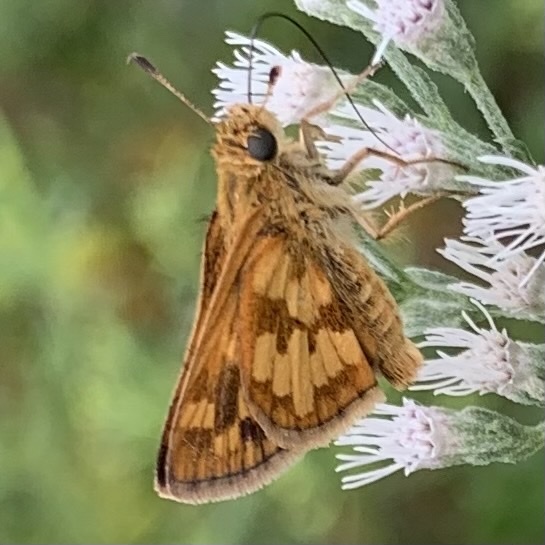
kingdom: Animalia
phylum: Arthropoda
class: Insecta
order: Lepidoptera
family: Hesperiidae
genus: Polites
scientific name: Polites coras
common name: Peck's skipper
